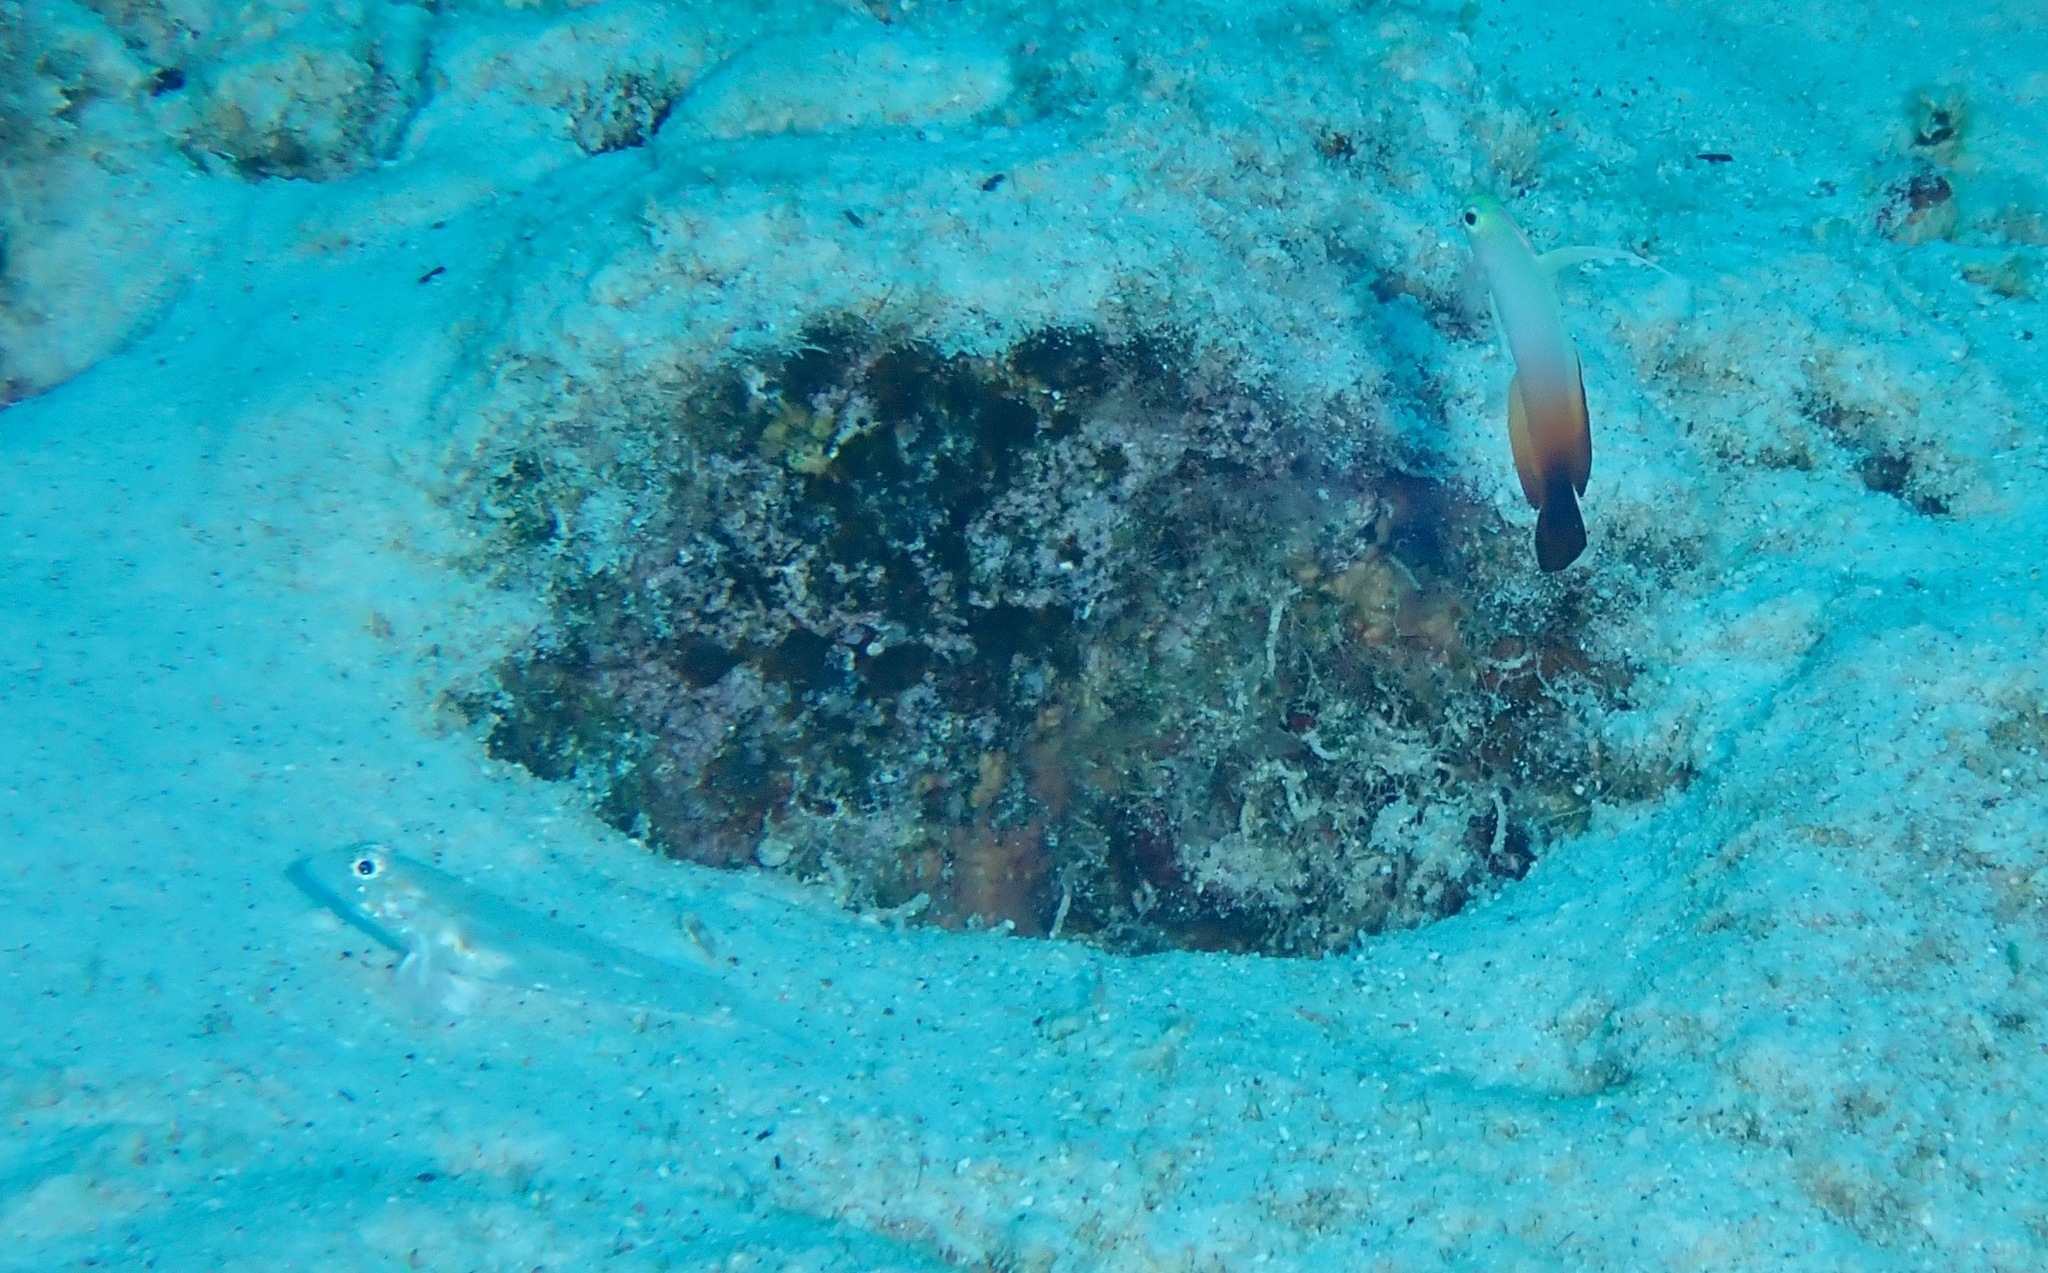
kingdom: Animalia
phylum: Chordata
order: Perciformes
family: Microdesmidae
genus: Nemateleotris
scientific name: Nemateleotris magnifica
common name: Fire goby
